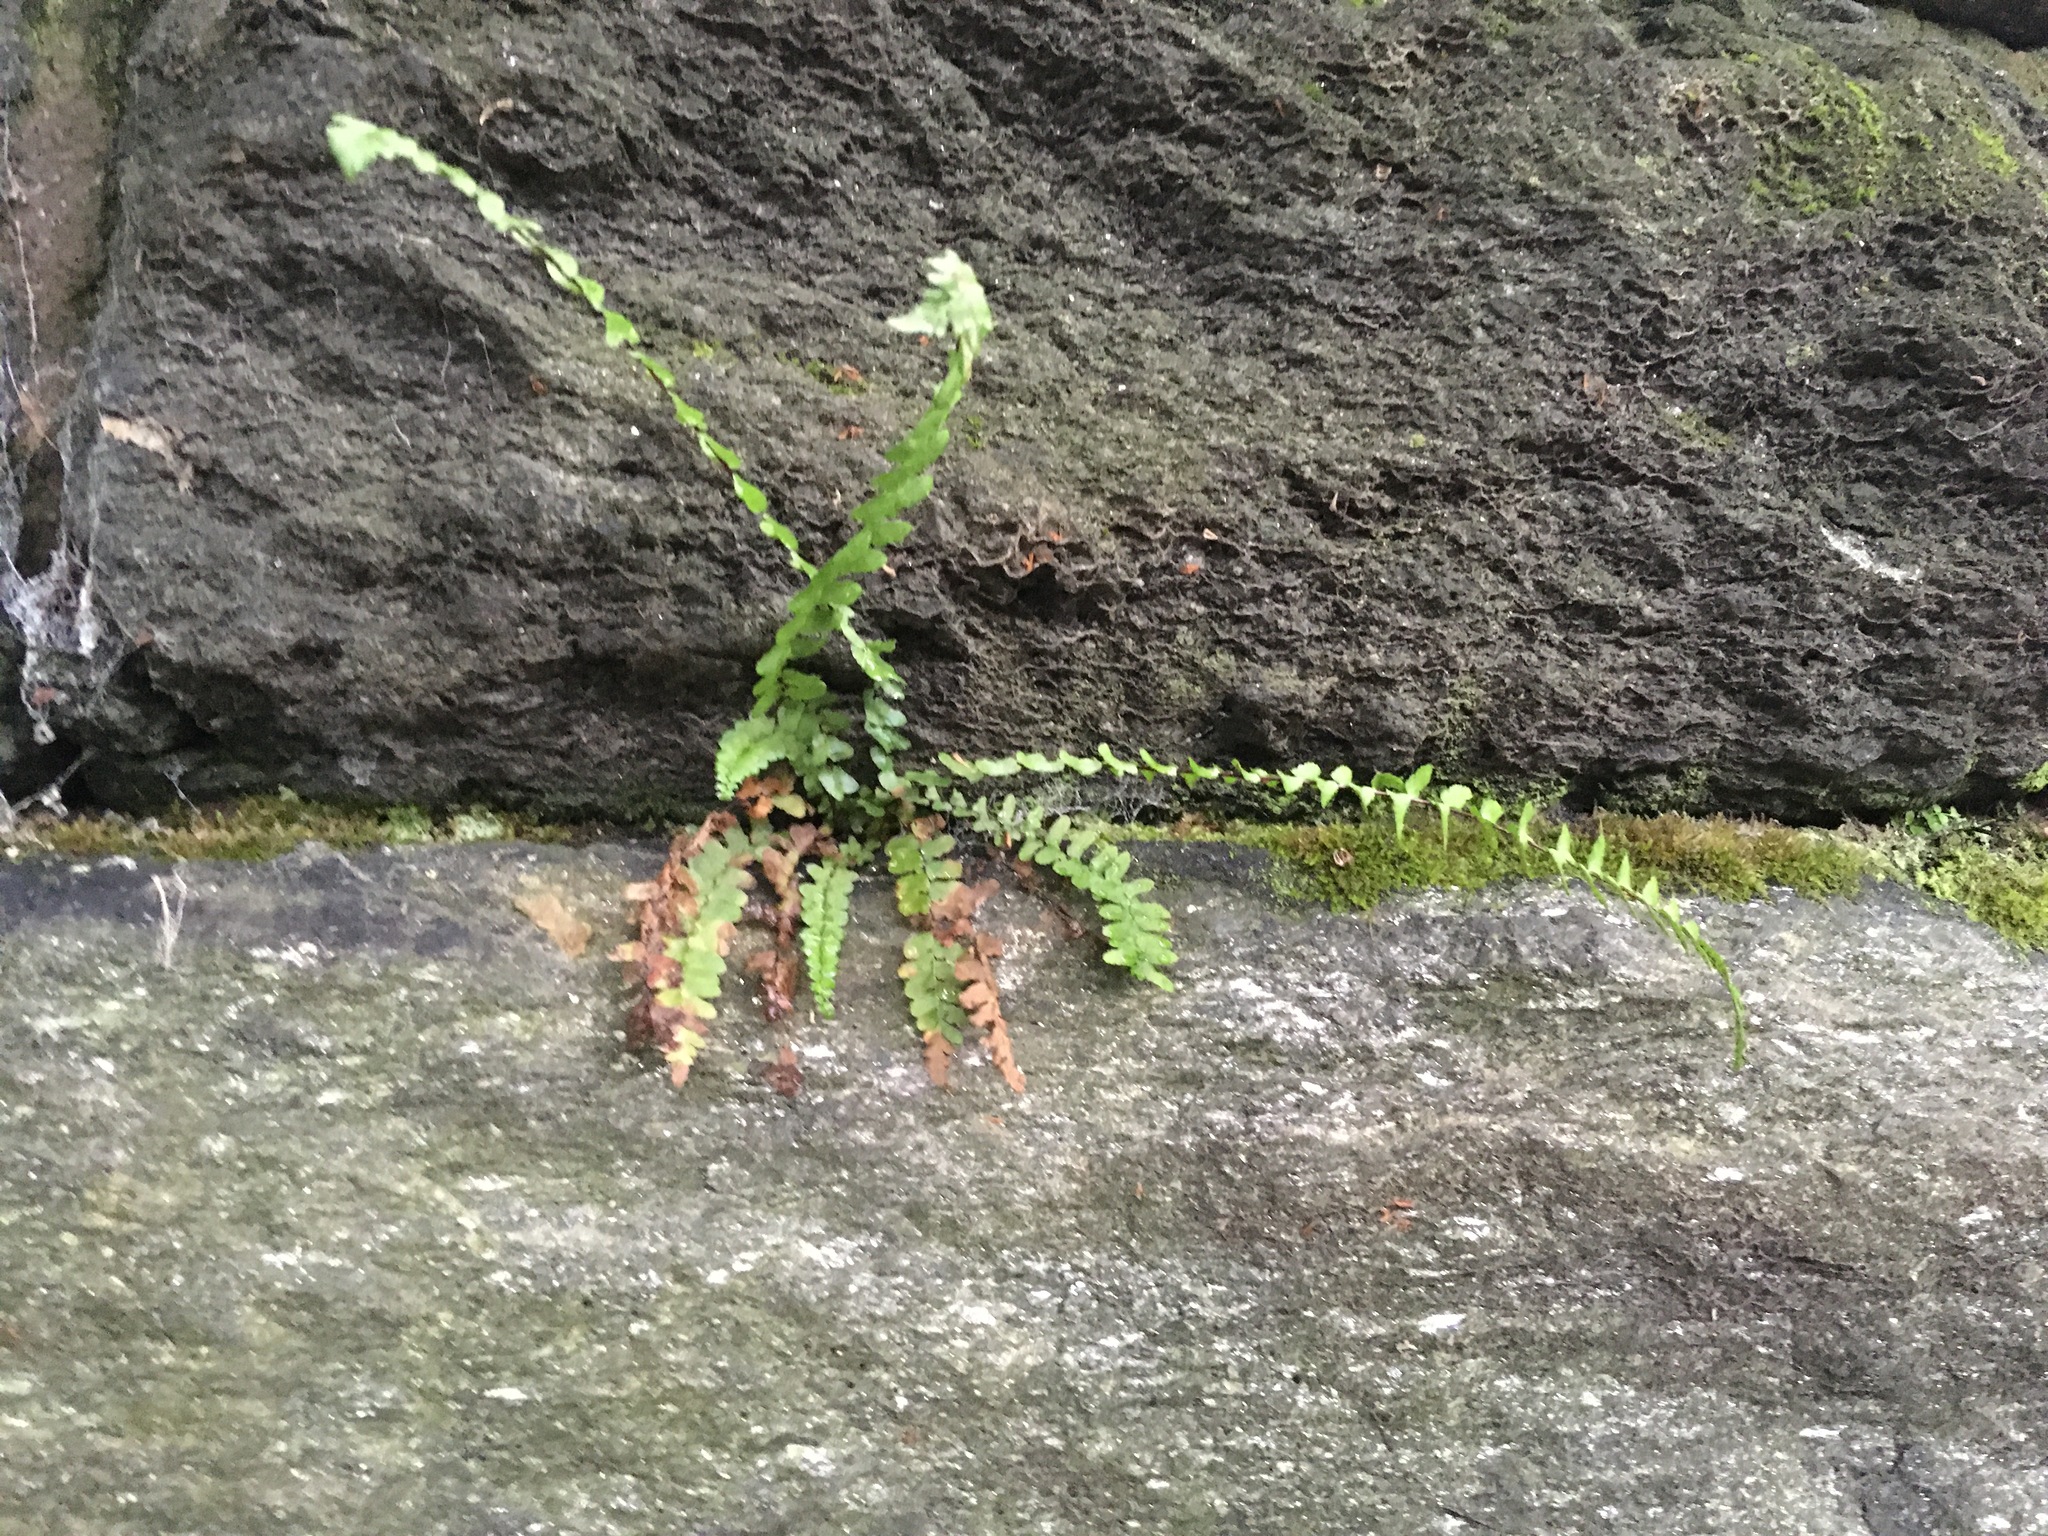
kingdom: Plantae
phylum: Tracheophyta
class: Polypodiopsida
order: Polypodiales
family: Aspleniaceae
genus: Asplenium
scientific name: Asplenium platyneuron
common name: Ebony spleenwort
